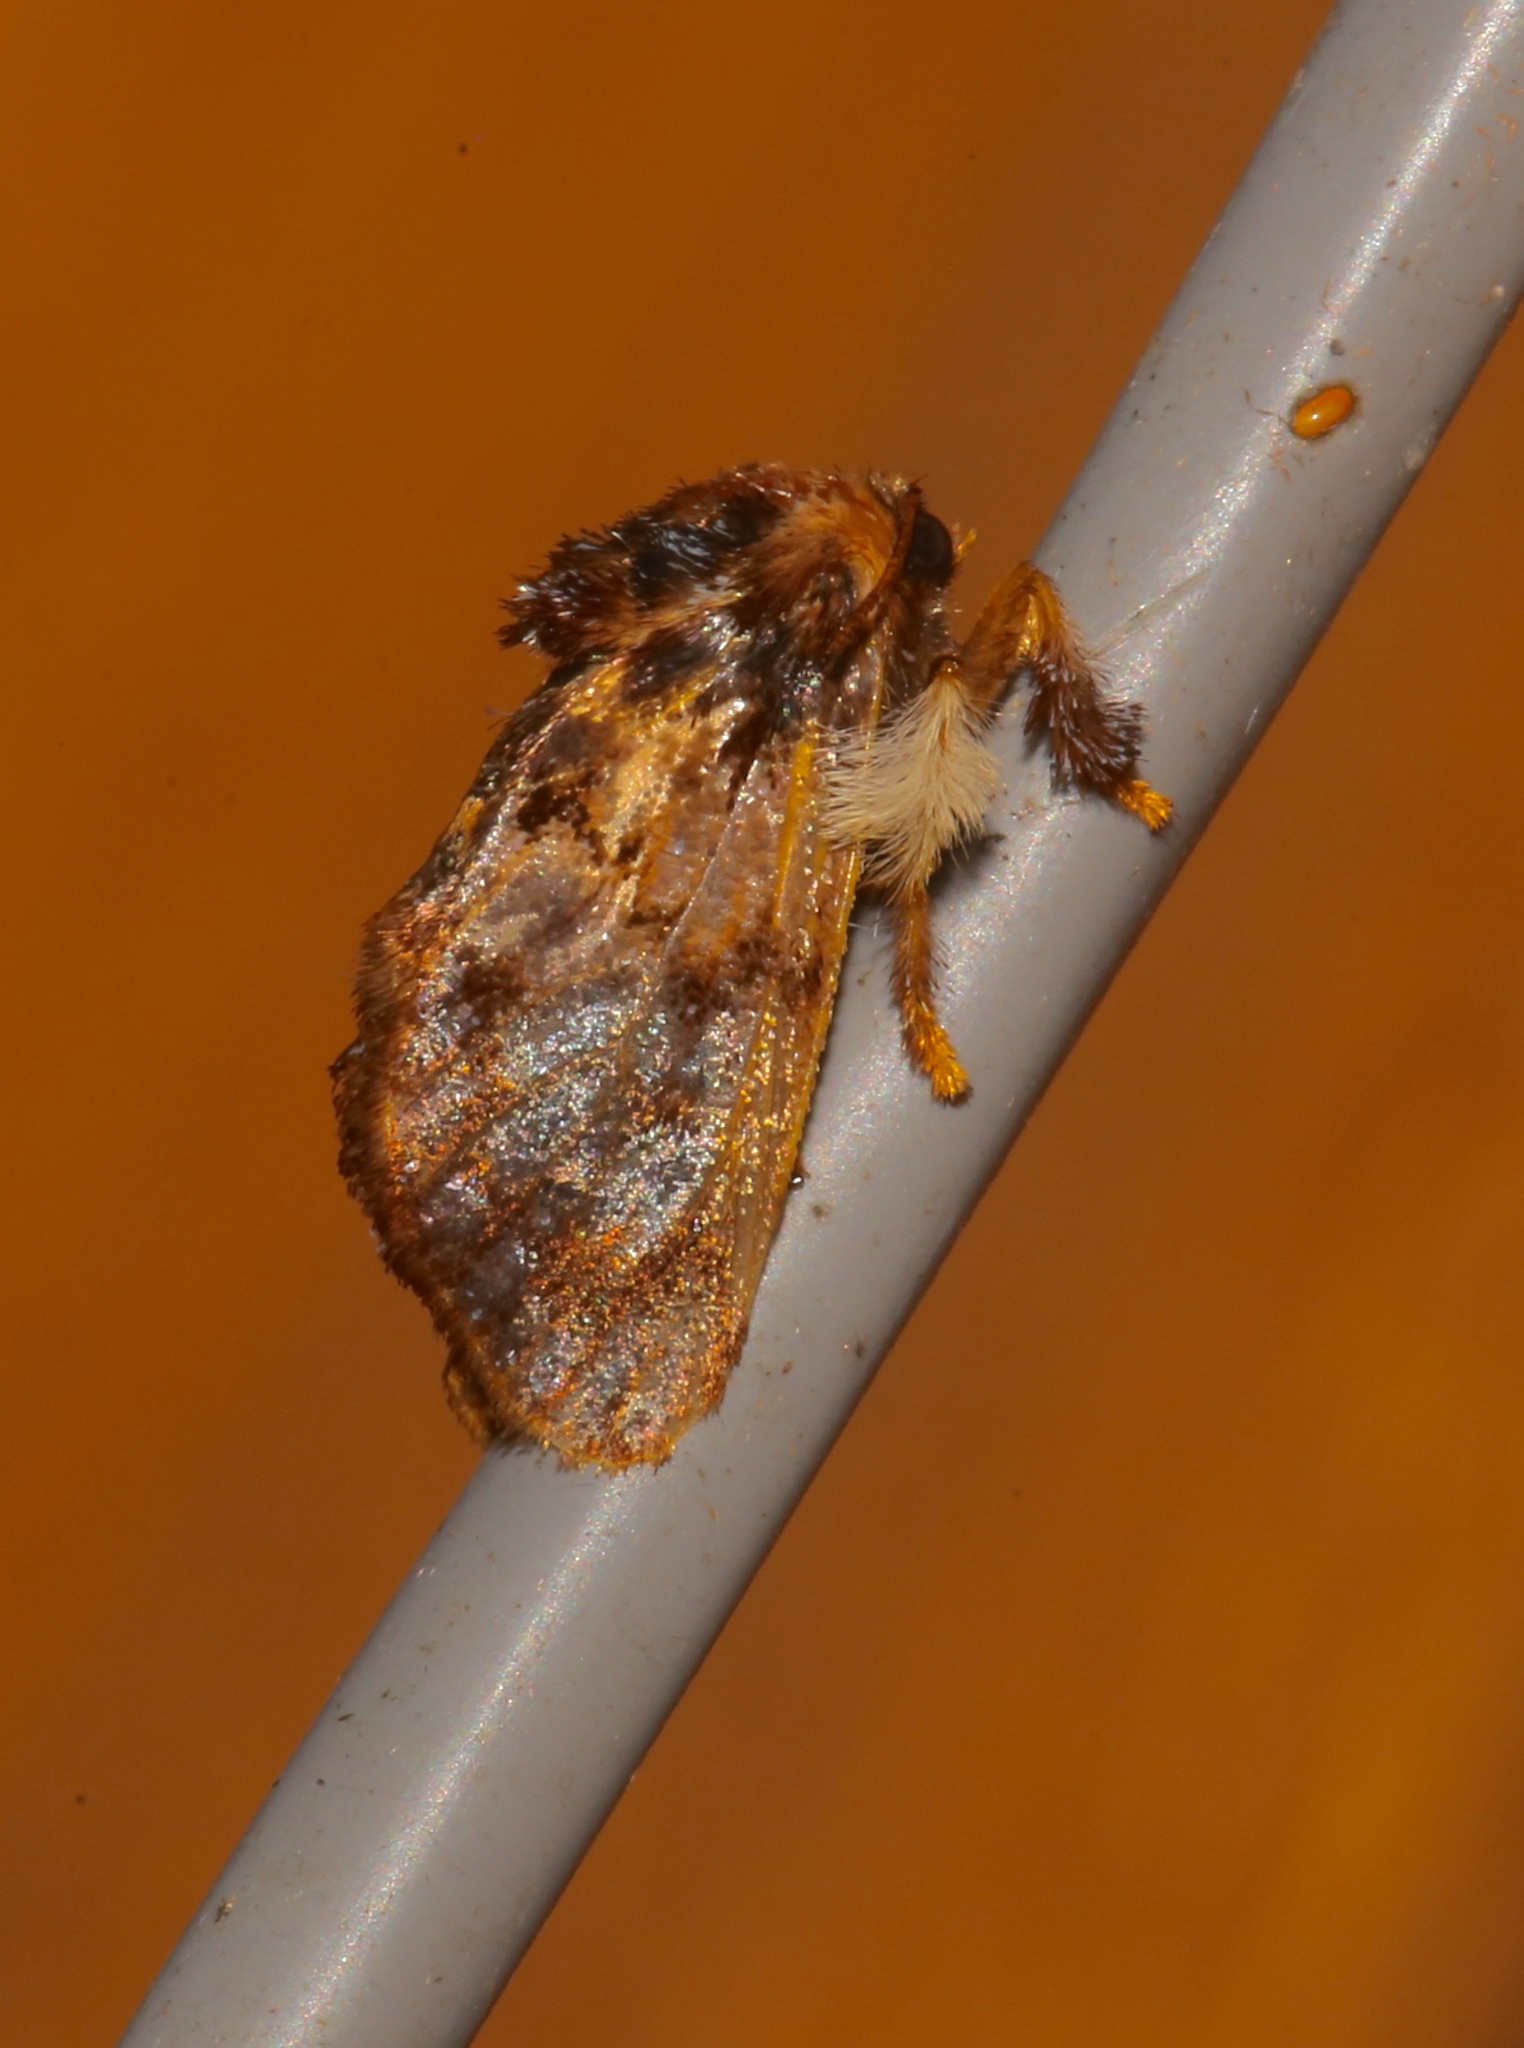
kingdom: Animalia
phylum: Arthropoda
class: Insecta
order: Lepidoptera
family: Limacodidae
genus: Phobetron
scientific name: Phobetron pithecium
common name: Hag moth
